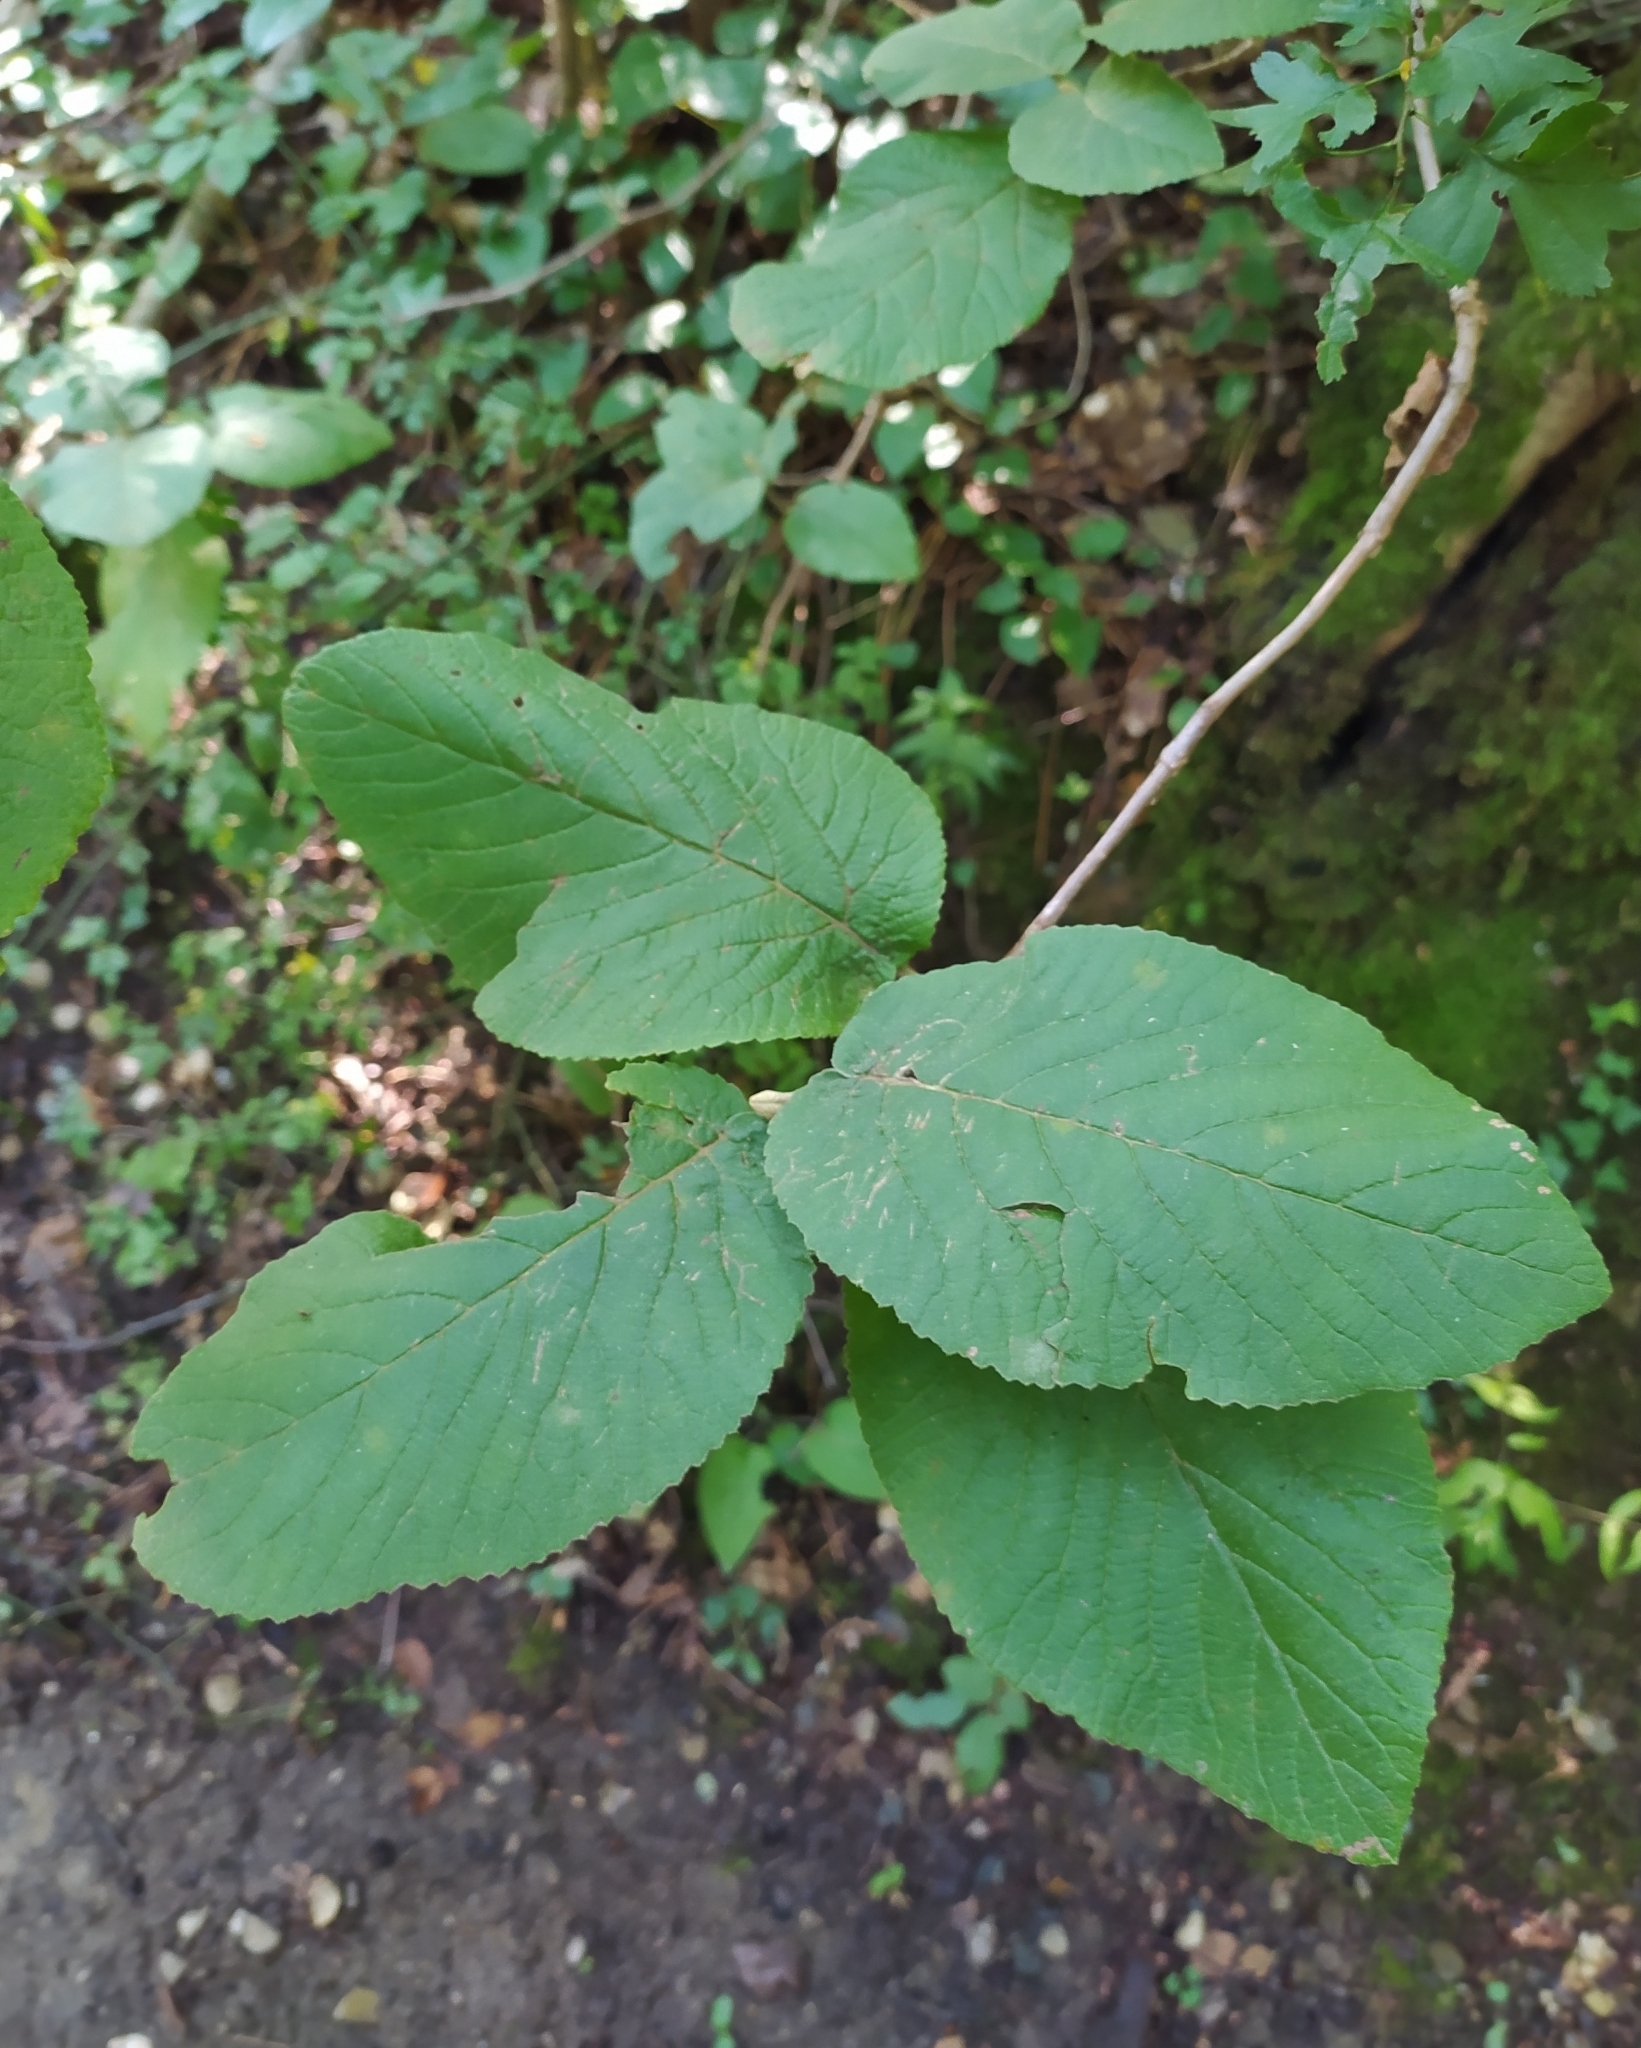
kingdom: Plantae
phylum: Tracheophyta
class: Magnoliopsida
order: Dipsacales
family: Viburnaceae
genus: Viburnum
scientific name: Viburnum lantana
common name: Wayfaring tree
